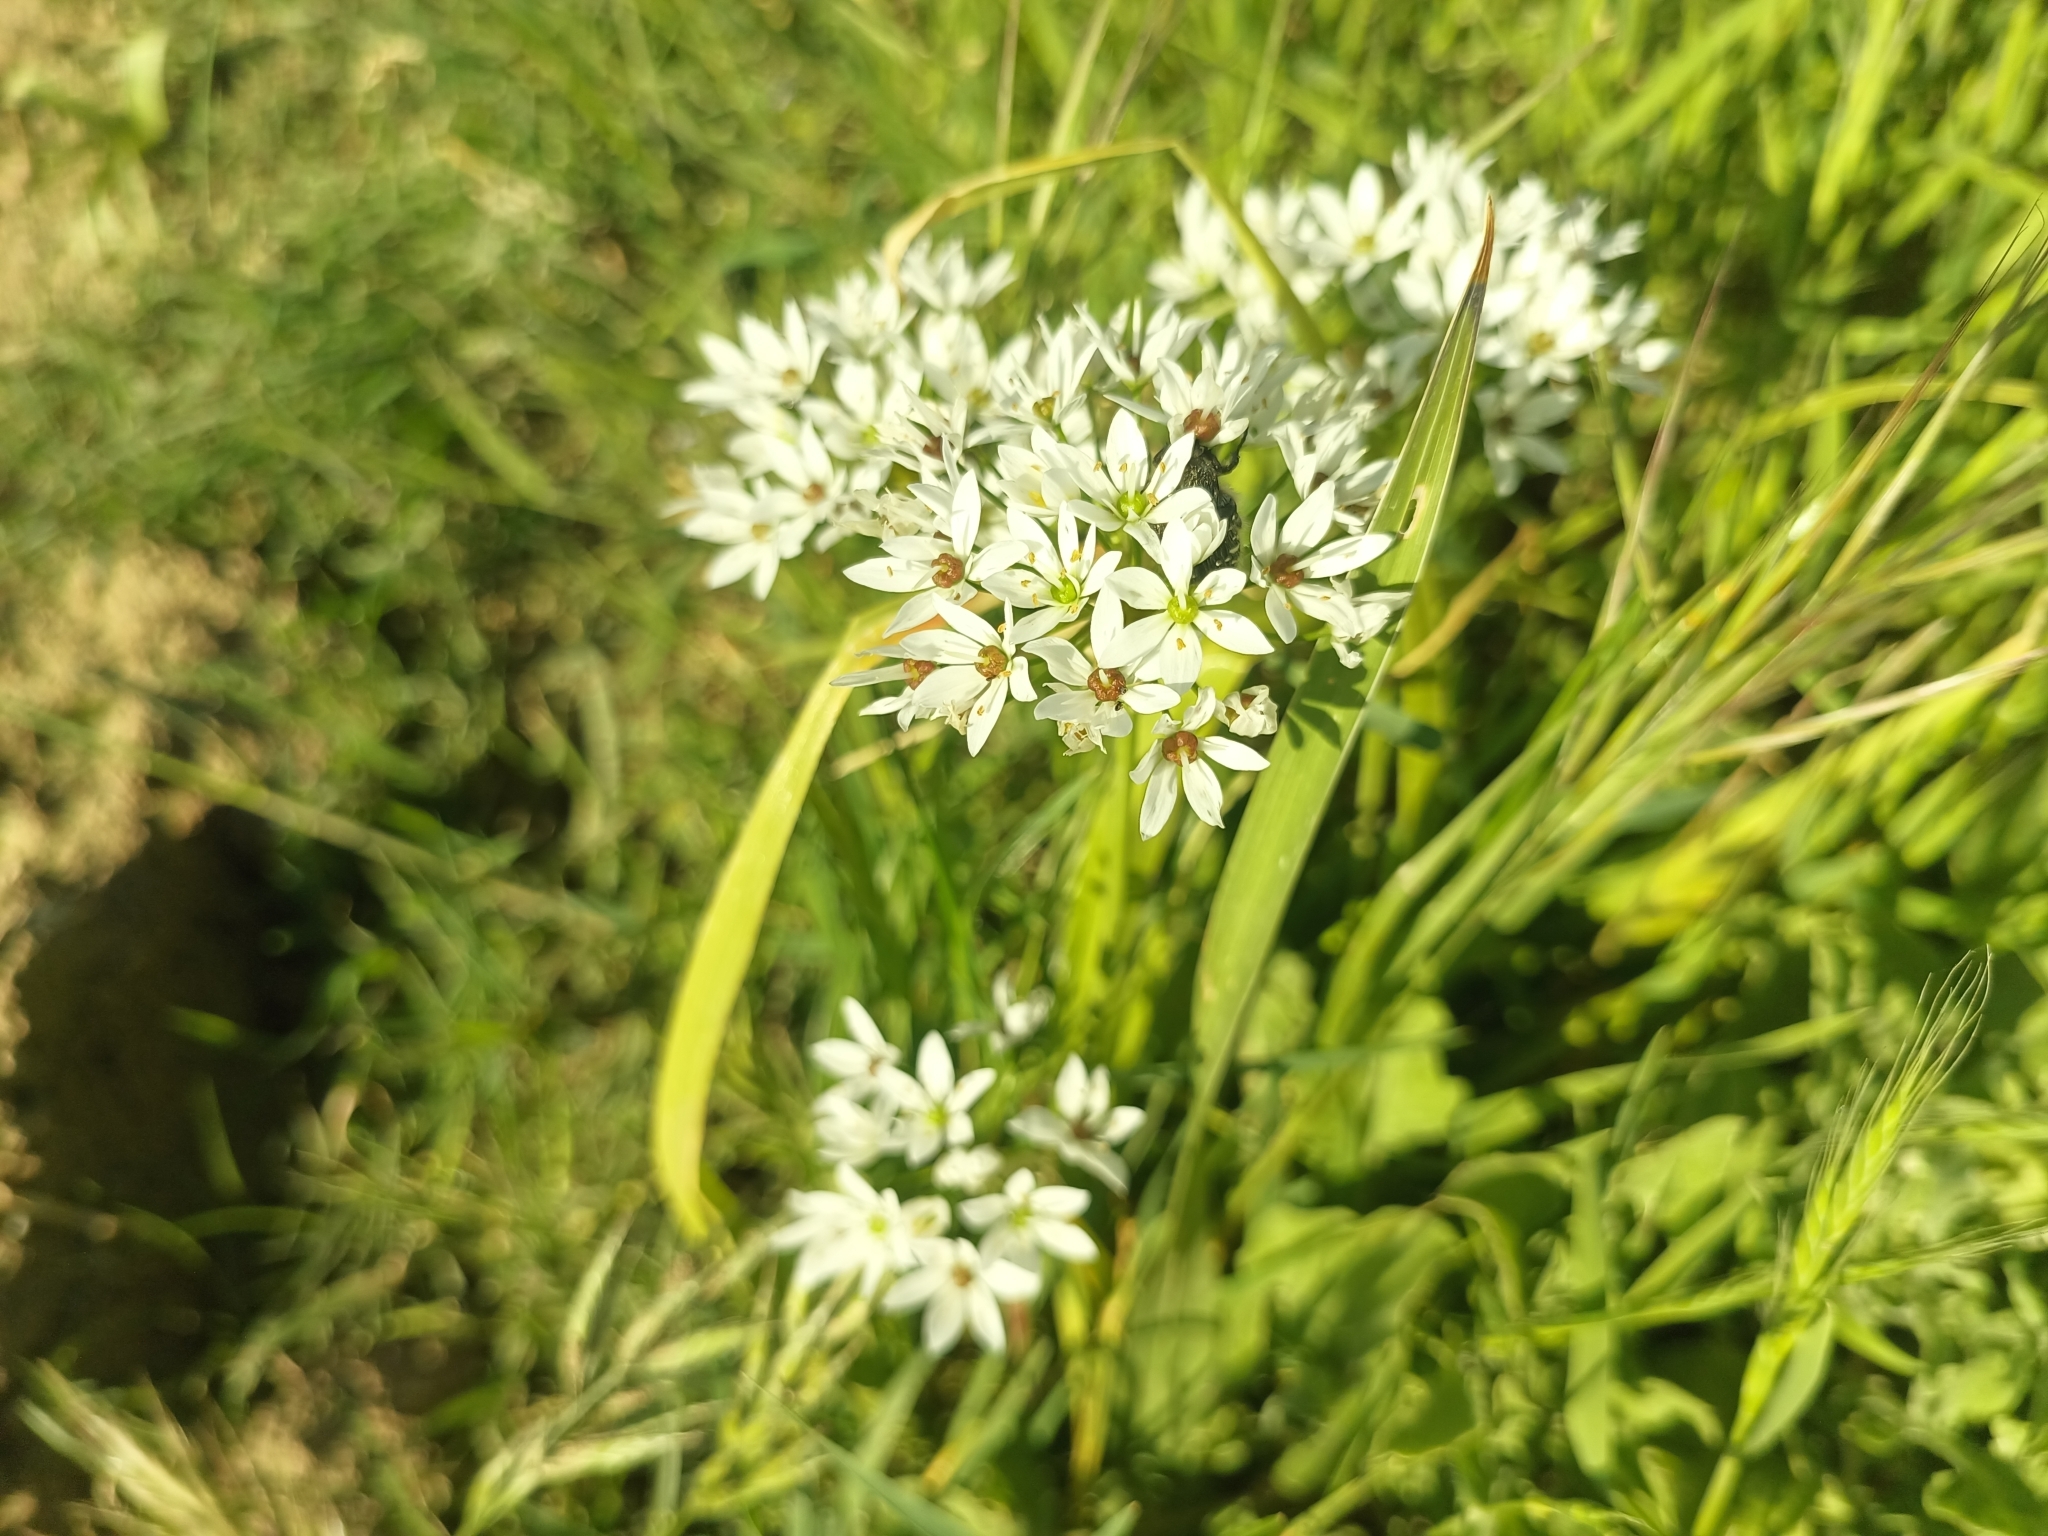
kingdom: Plantae
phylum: Tracheophyta
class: Liliopsida
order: Asparagales
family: Amaryllidaceae
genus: Allium
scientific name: Allium subhirsutum
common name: Hairy garlic
